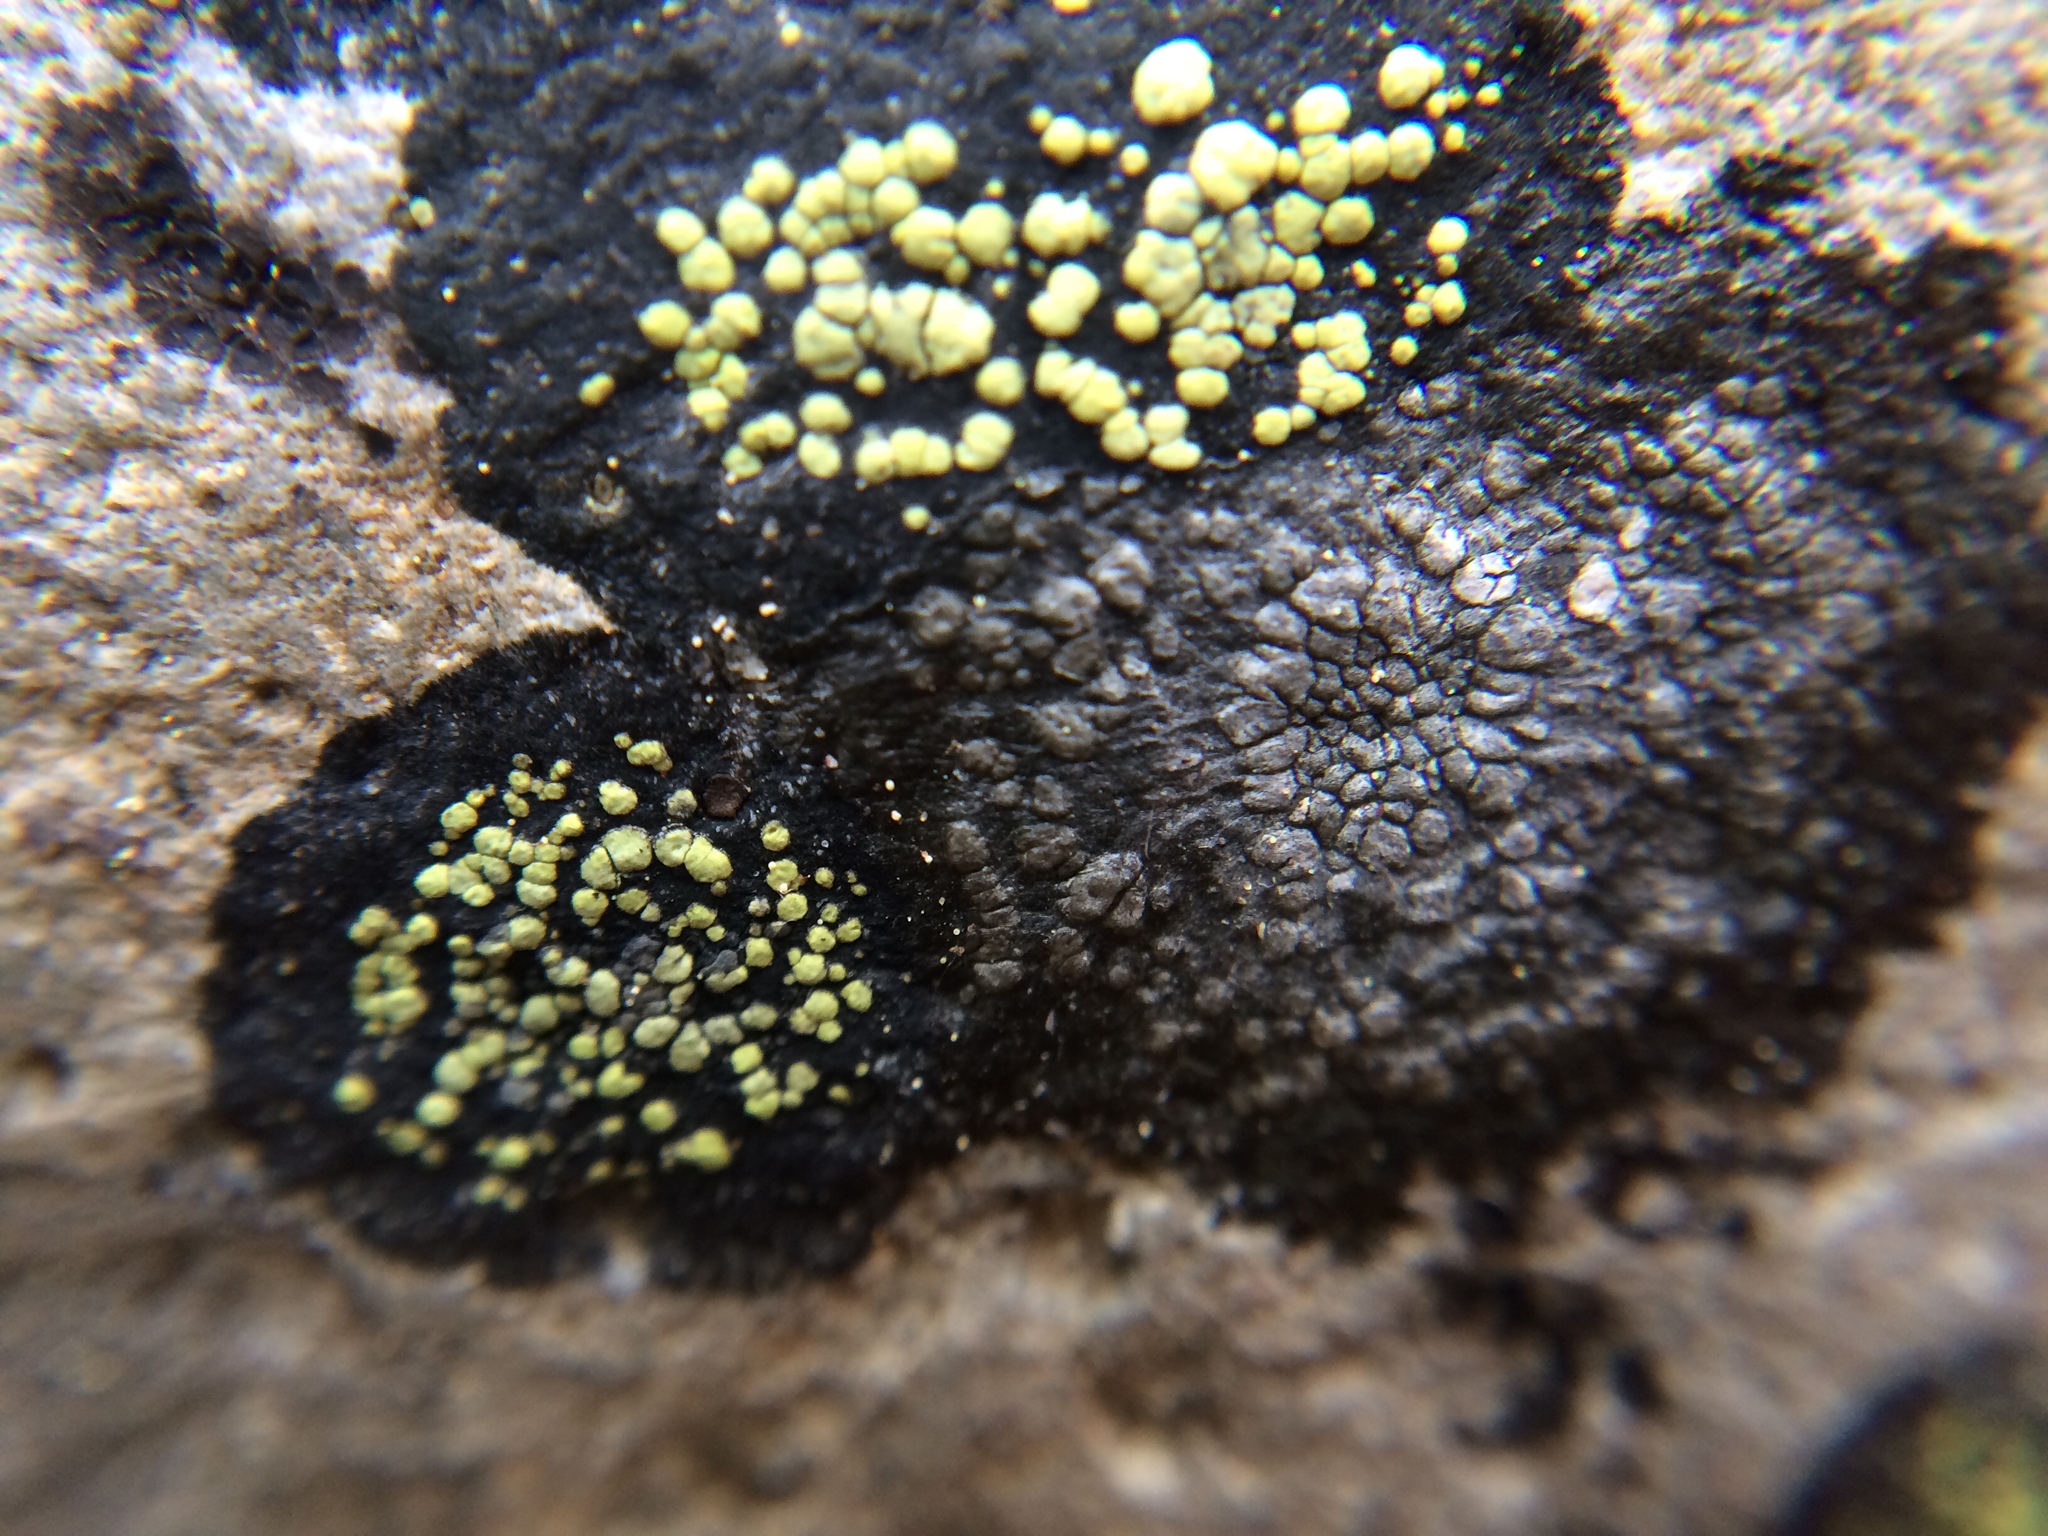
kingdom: Fungi
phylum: Ascomycota
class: Lecanoromycetes
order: Rhizocarpales
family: Rhizocarpaceae
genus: Rhizocarpon
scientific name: Rhizocarpon geographicum
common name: Yellow map lichen
